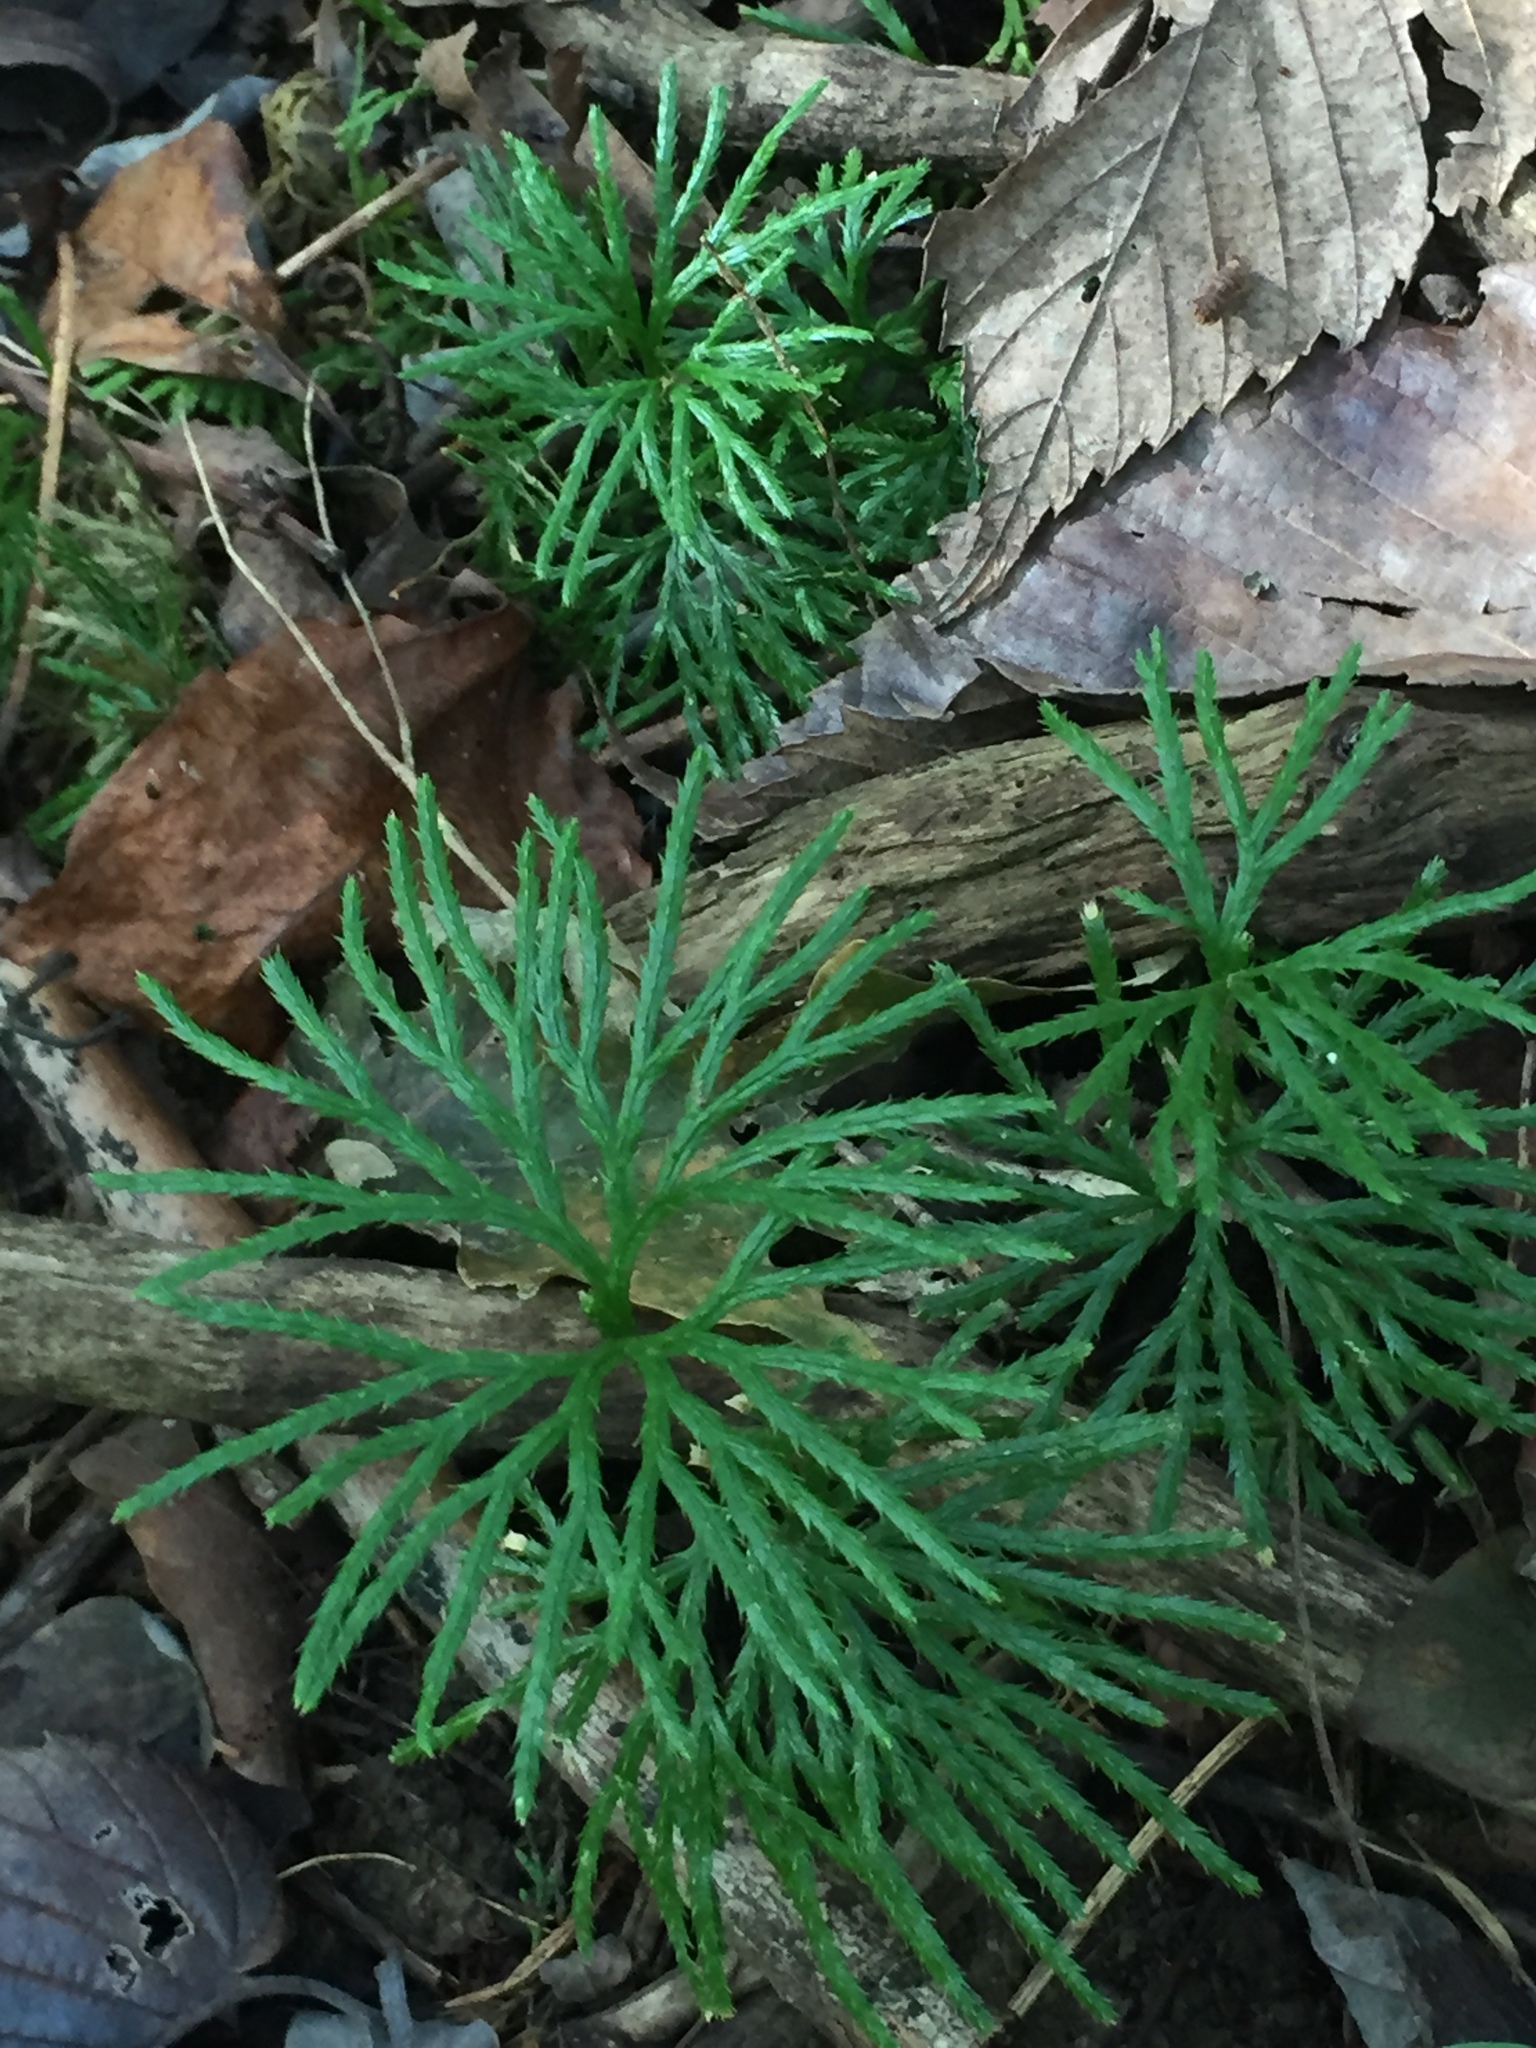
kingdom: Plantae
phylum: Tracheophyta
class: Lycopodiopsida
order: Lycopodiales
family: Lycopodiaceae
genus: Diphasiastrum
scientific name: Diphasiastrum digitatum
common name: Southern running-pine
